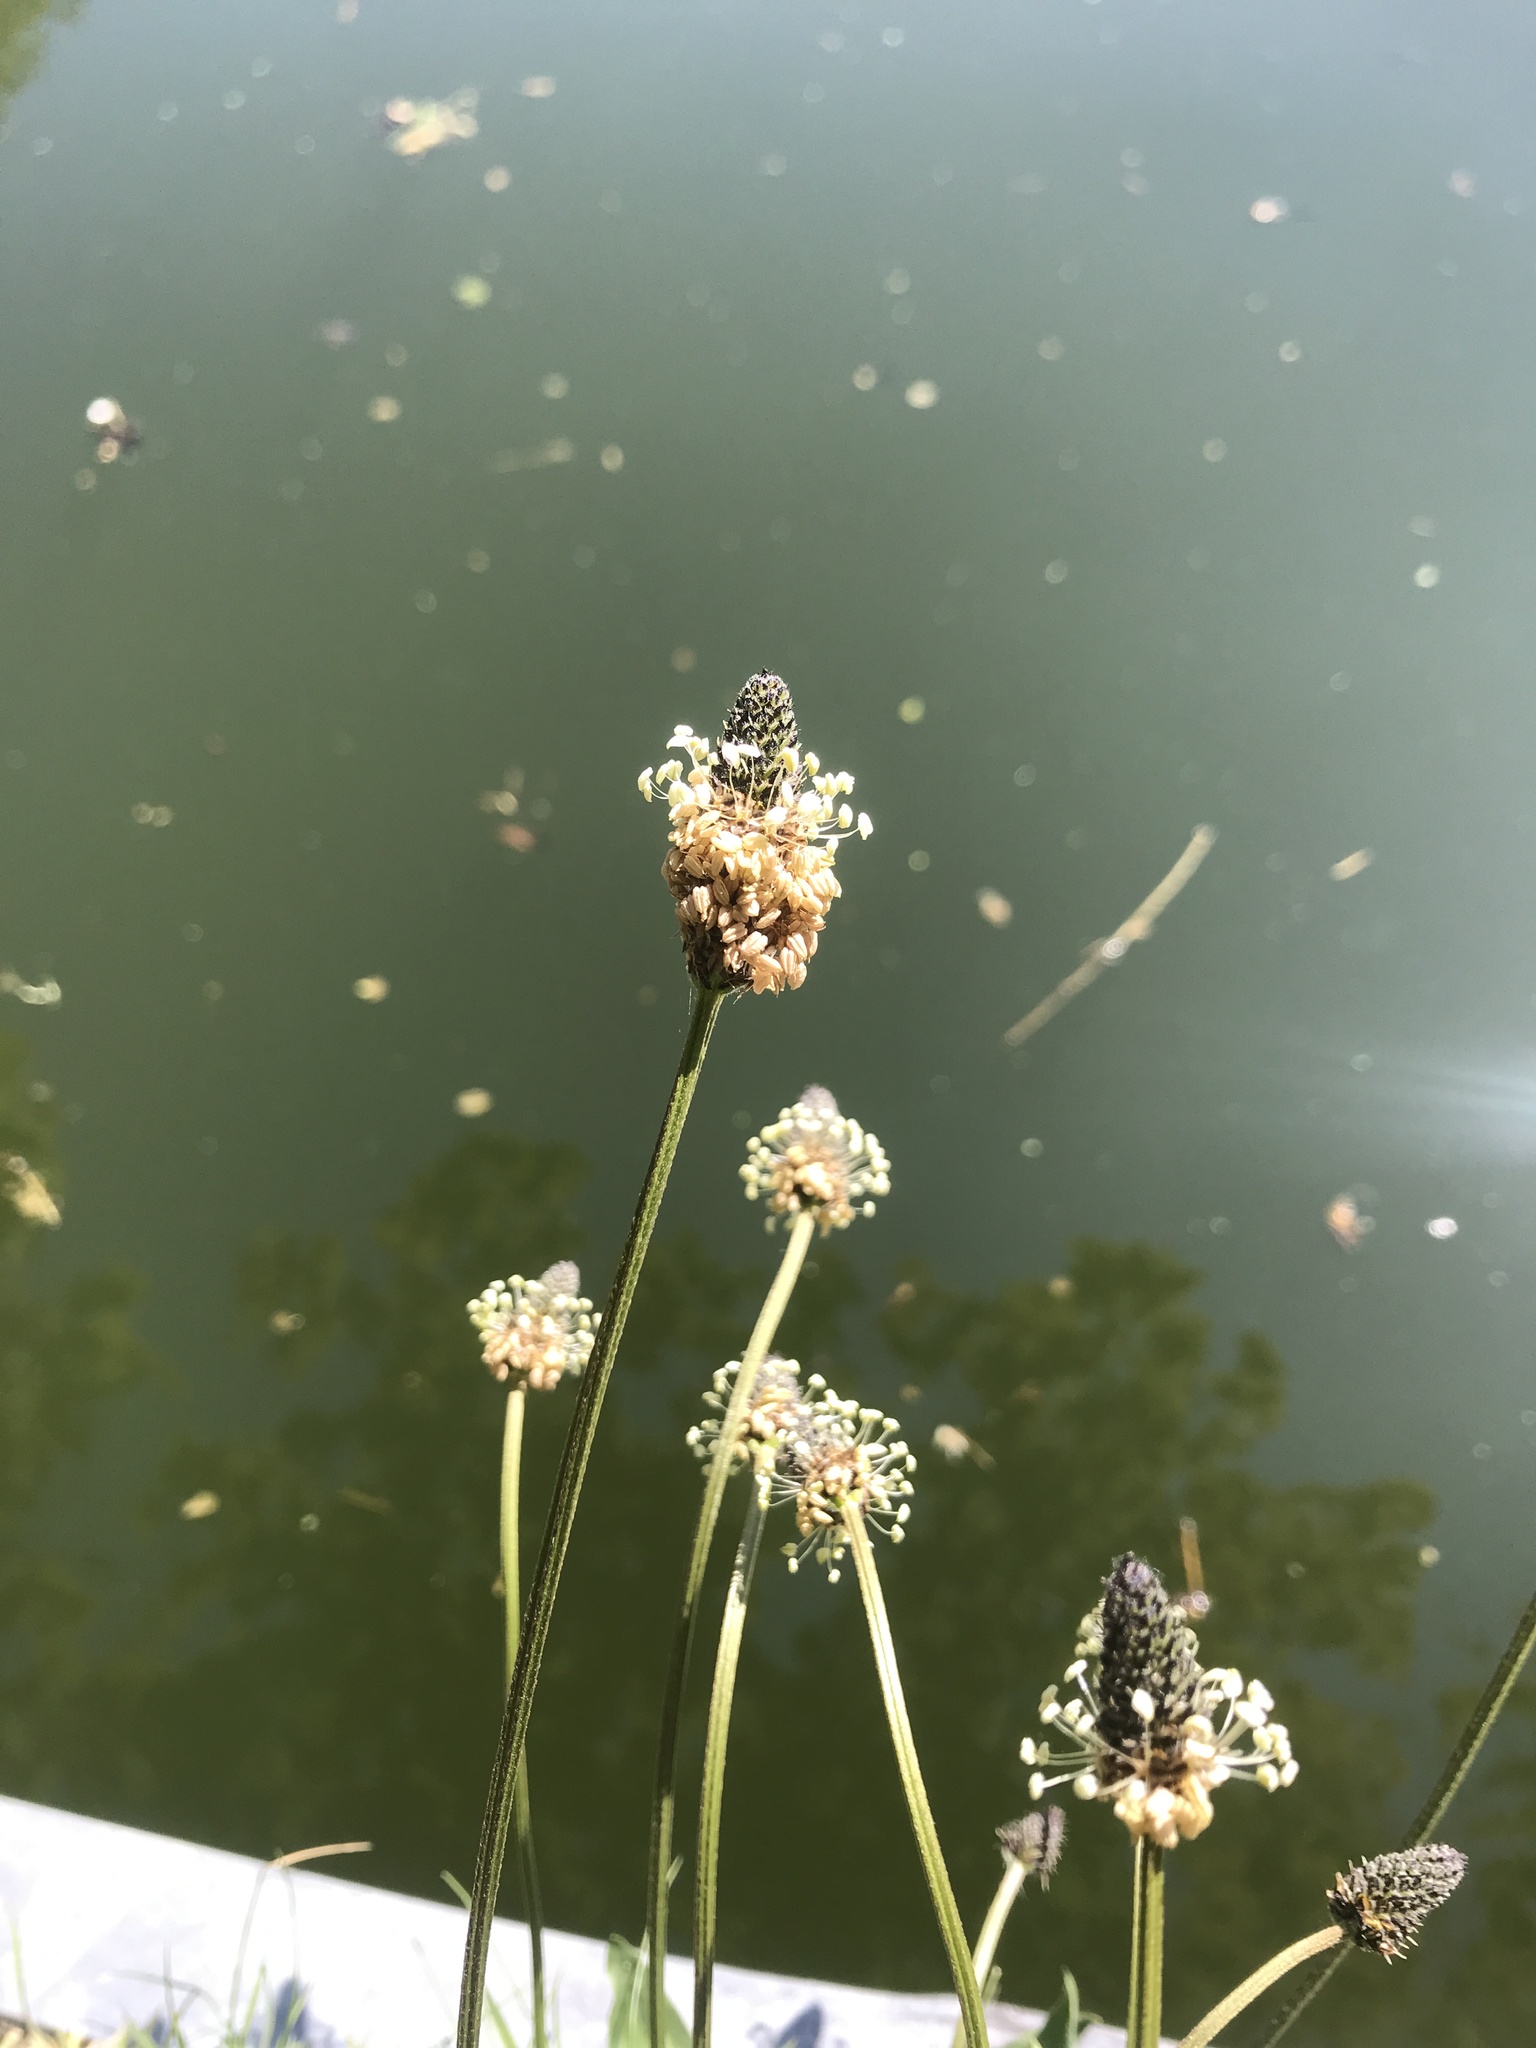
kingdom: Plantae
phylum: Tracheophyta
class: Magnoliopsida
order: Lamiales
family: Plantaginaceae
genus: Plantago
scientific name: Plantago lanceolata
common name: Ribwort plantain
